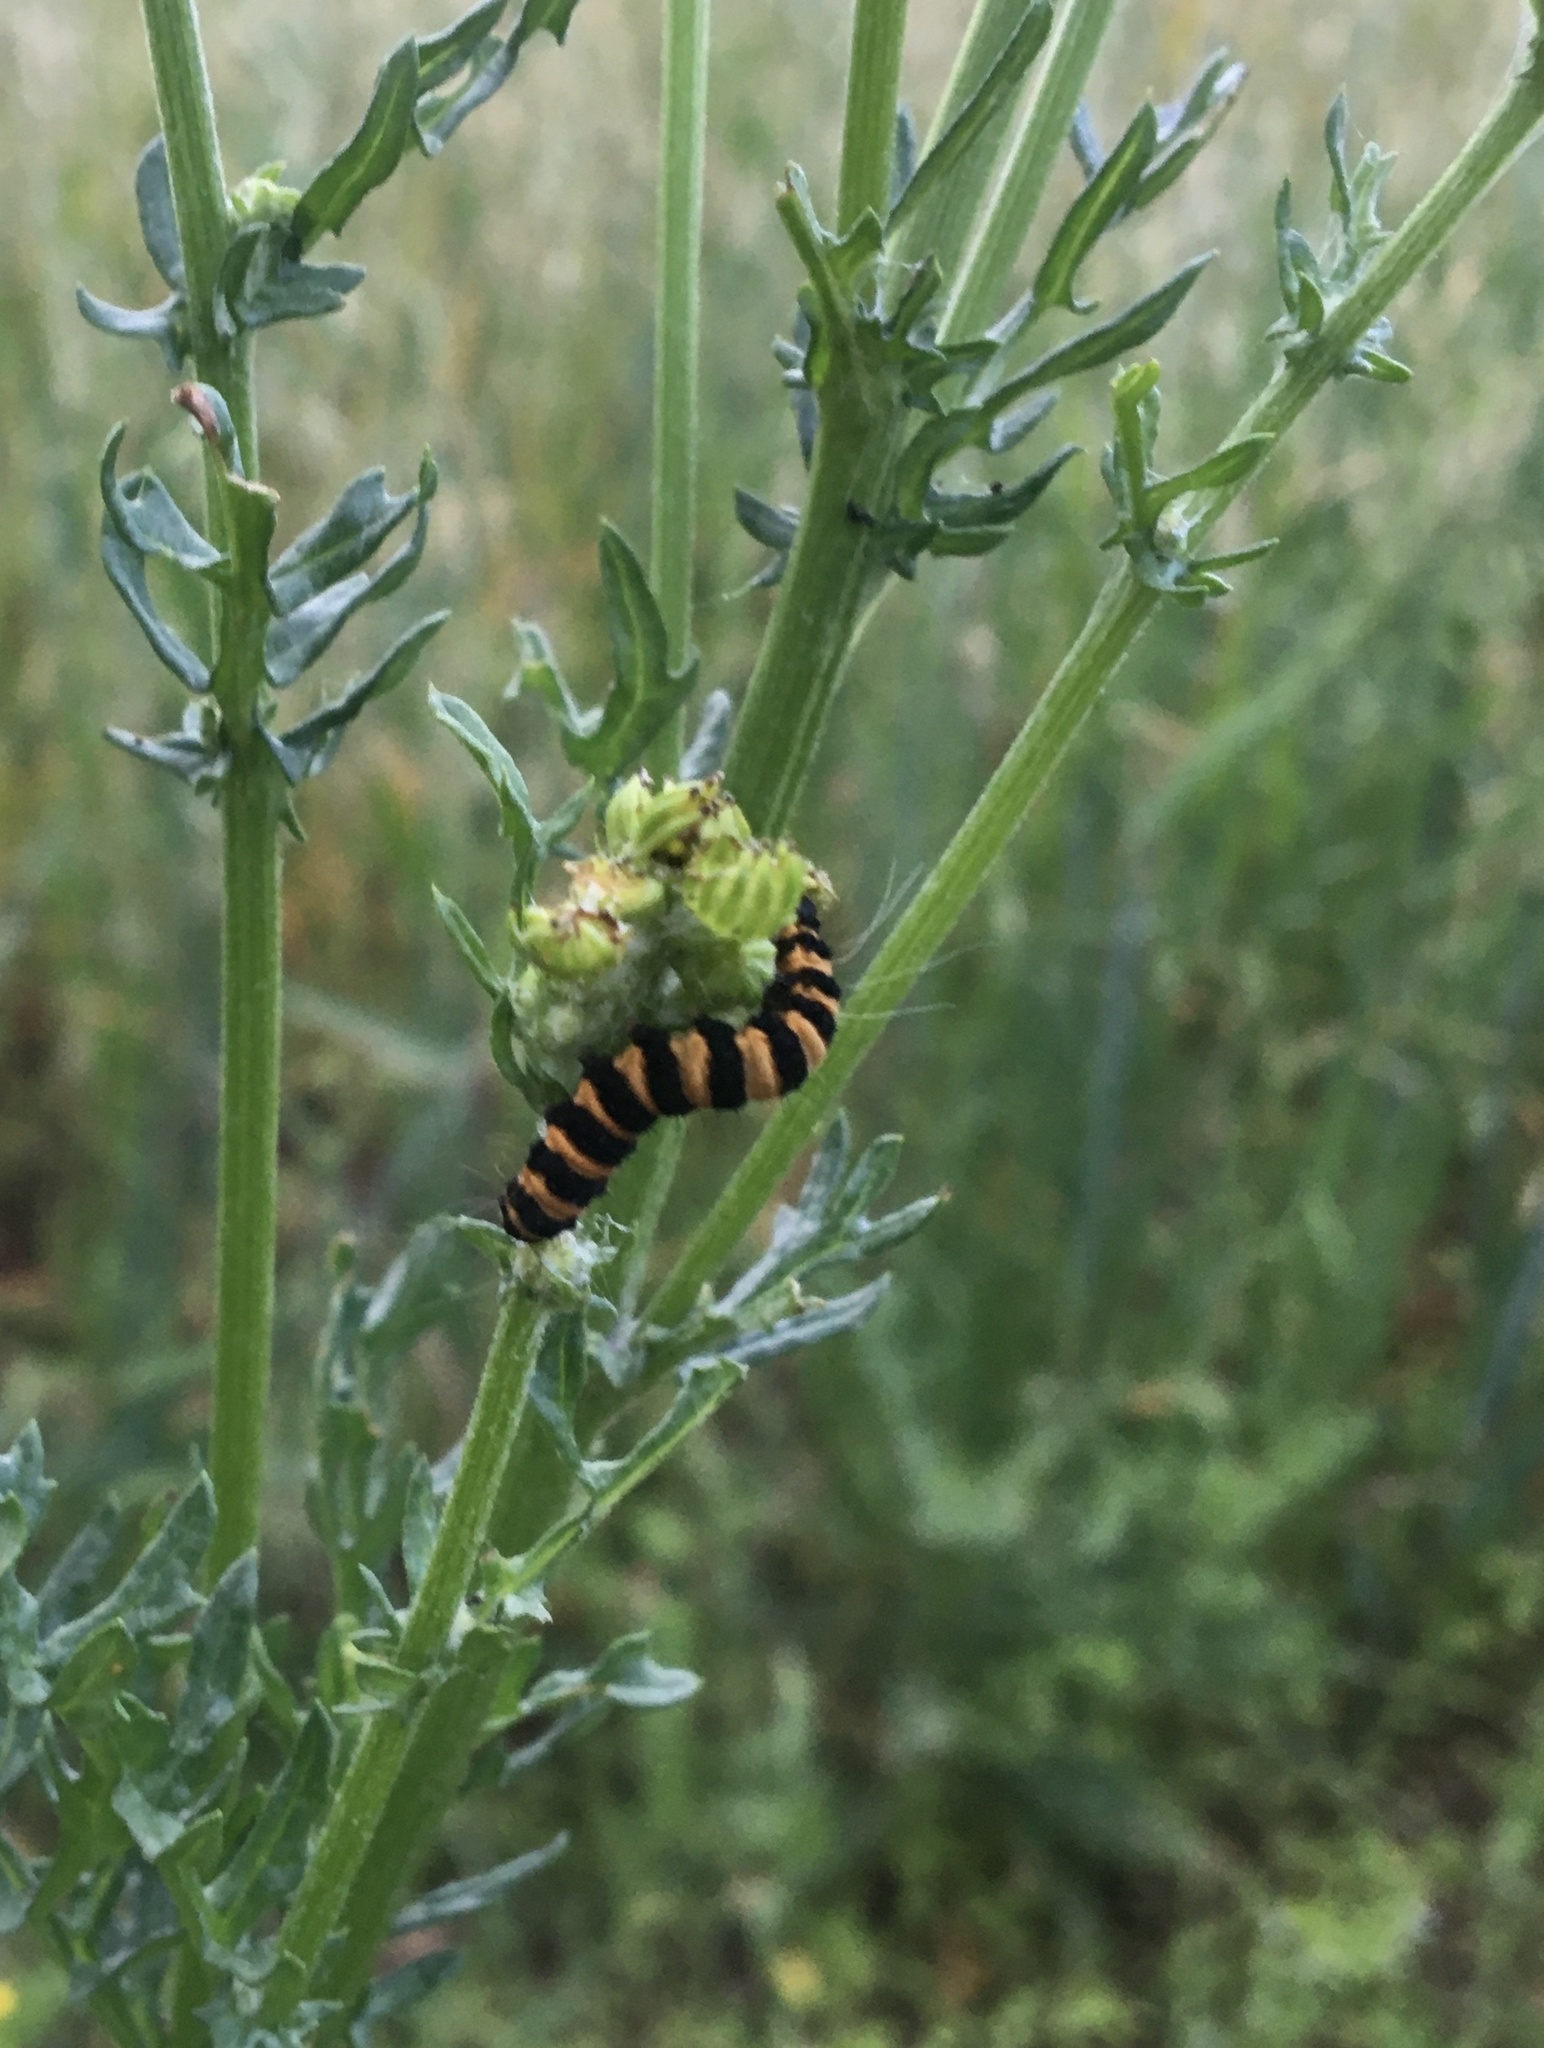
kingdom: Animalia
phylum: Arthropoda
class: Insecta
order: Lepidoptera
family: Erebidae
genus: Tyria
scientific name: Tyria jacobaeae
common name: Cinnabar
